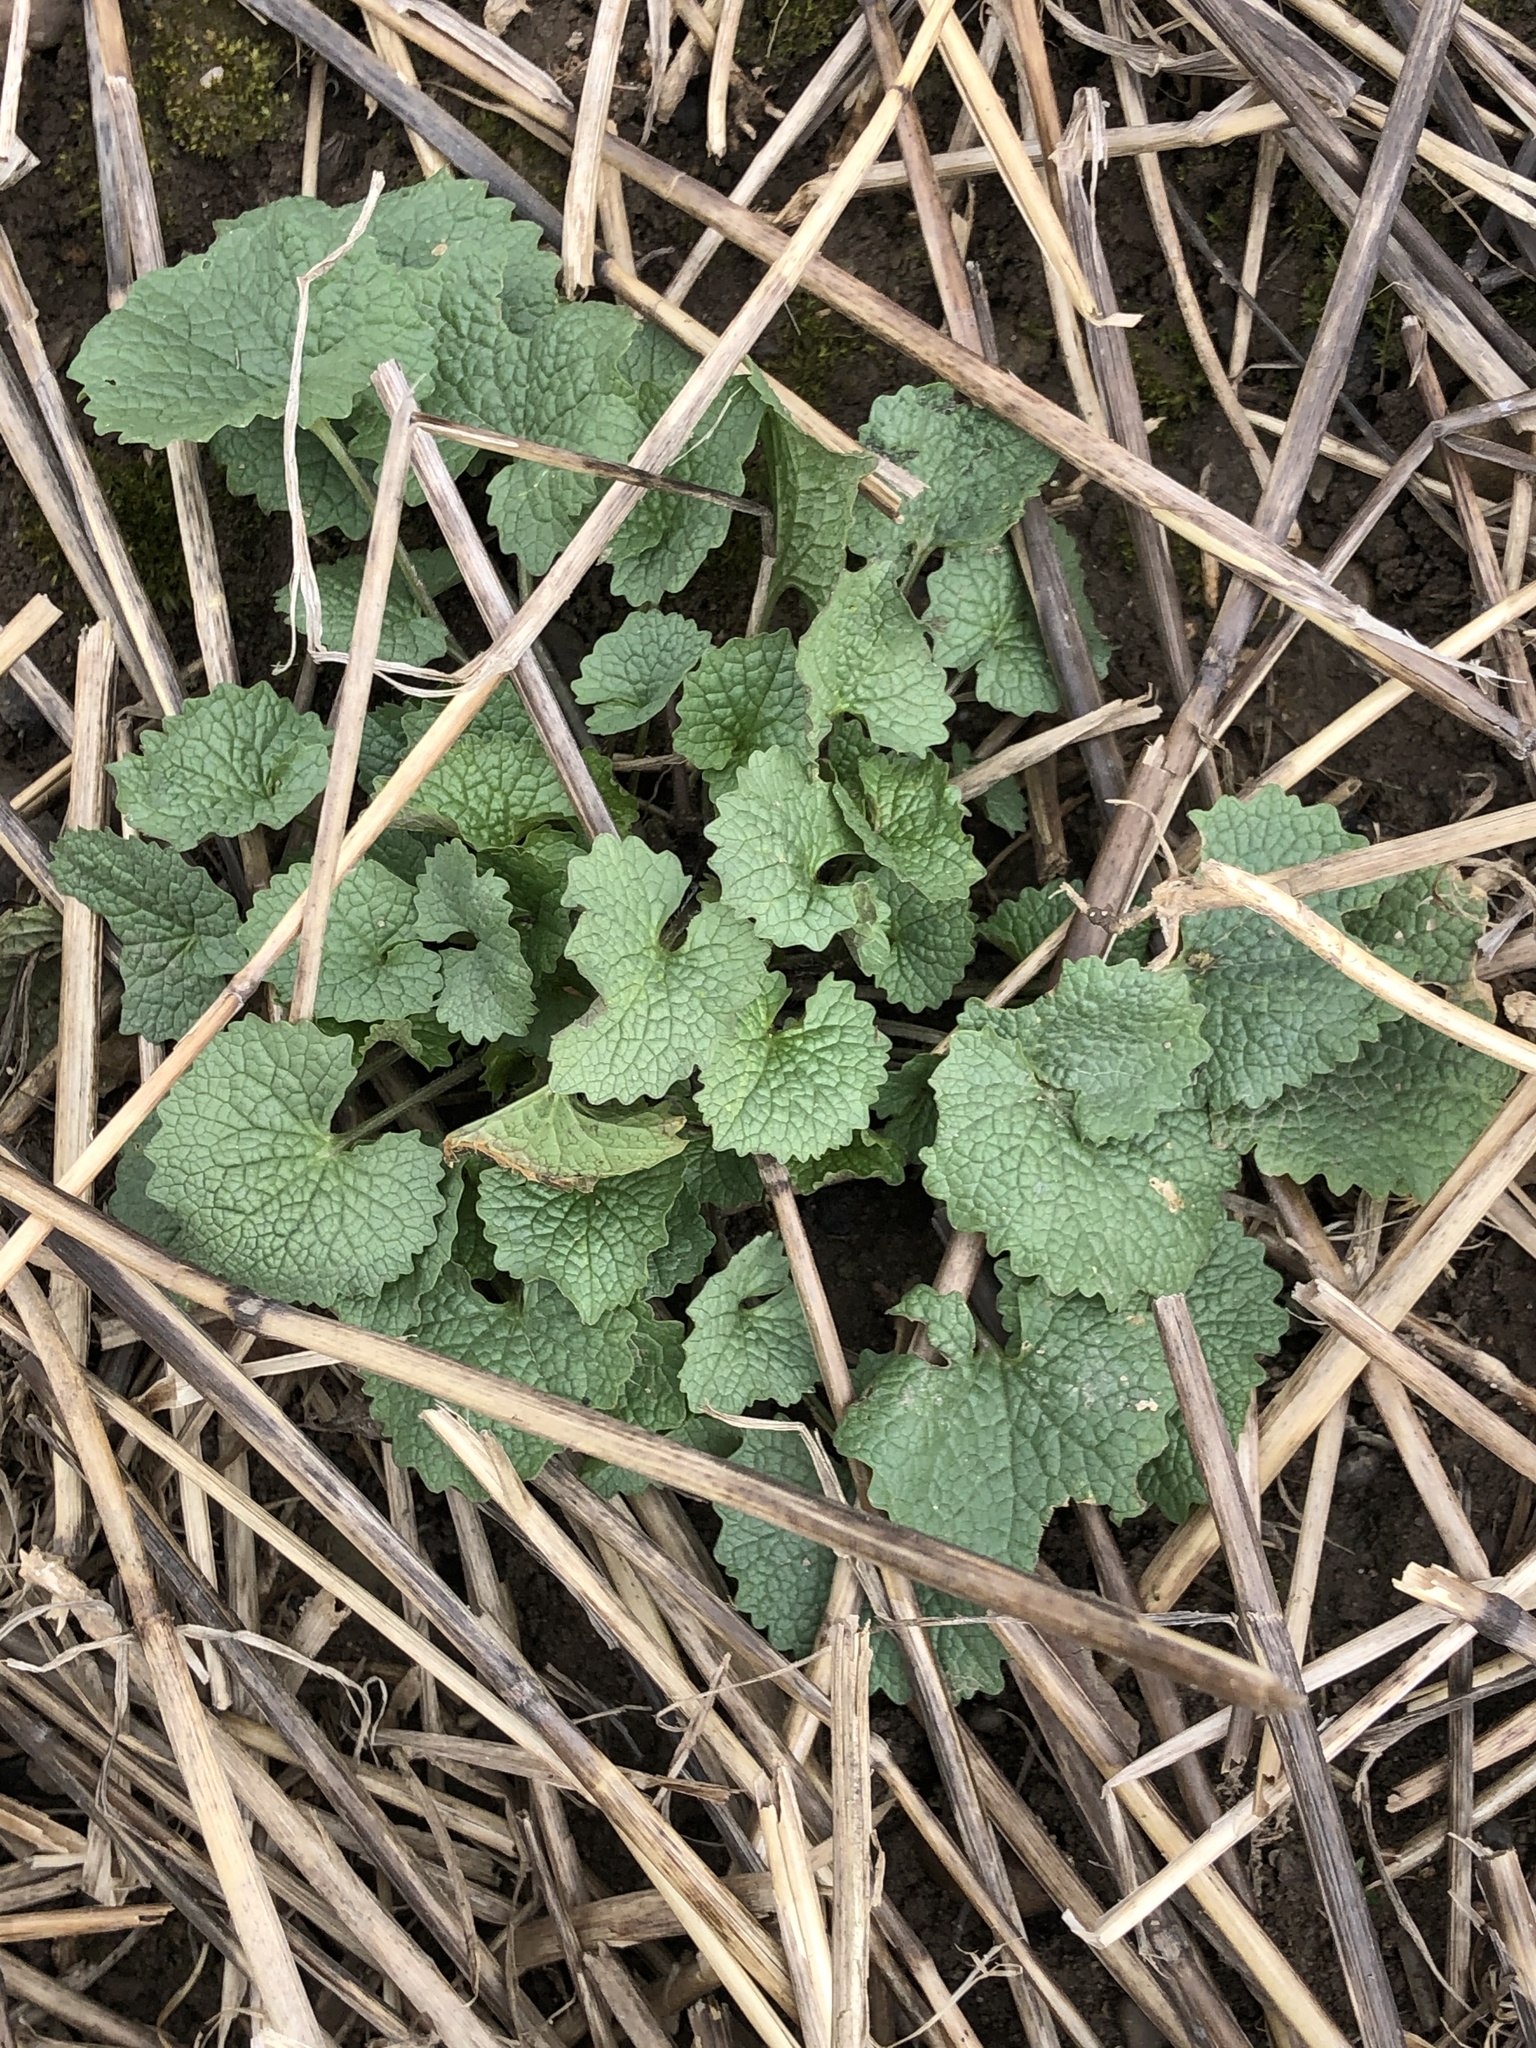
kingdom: Plantae
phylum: Tracheophyta
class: Magnoliopsida
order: Brassicales
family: Brassicaceae
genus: Alliaria
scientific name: Alliaria petiolata
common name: Garlic mustard
